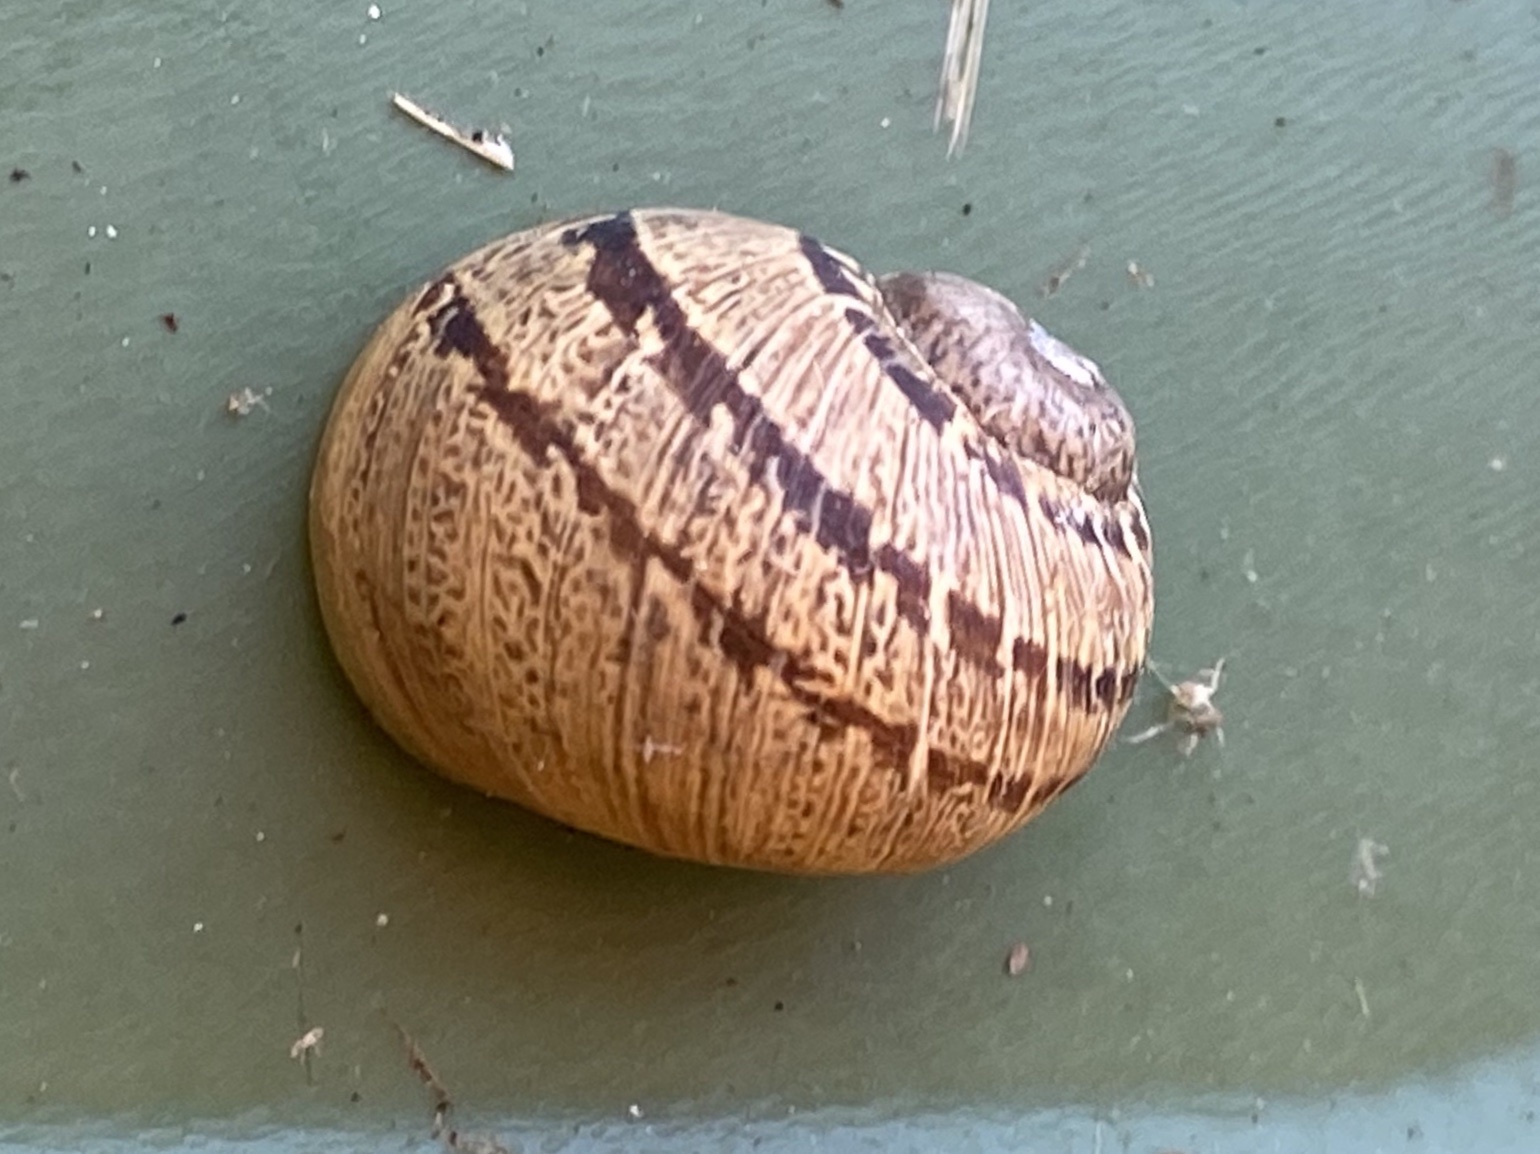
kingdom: Animalia
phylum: Mollusca
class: Gastropoda
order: Stylommatophora
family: Helicidae
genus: Cornu
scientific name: Cornu aspersum
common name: Brown garden snail
